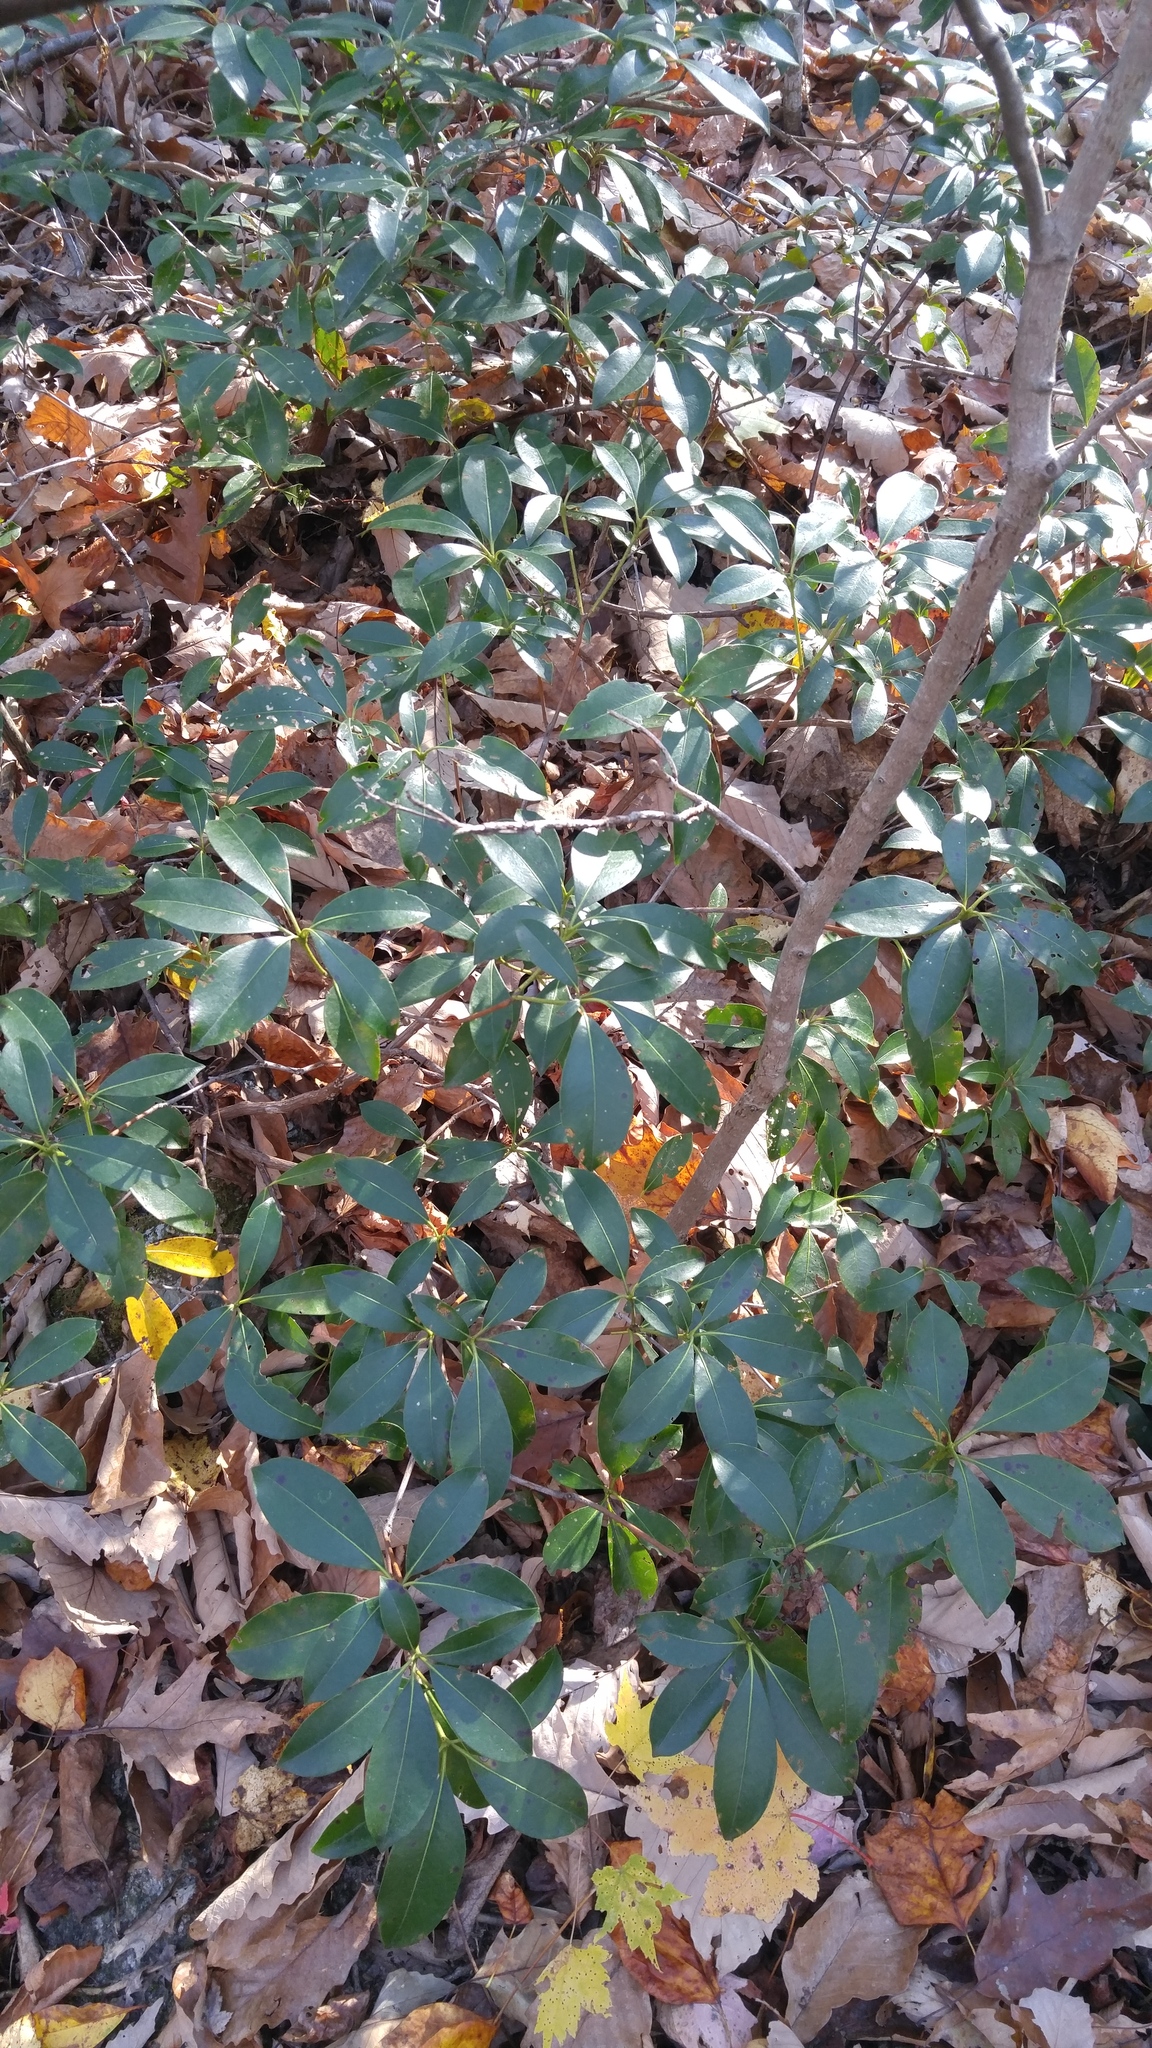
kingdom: Plantae
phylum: Tracheophyta
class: Magnoliopsida
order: Ericales
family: Ericaceae
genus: Kalmia
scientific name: Kalmia latifolia
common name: Mountain-laurel
